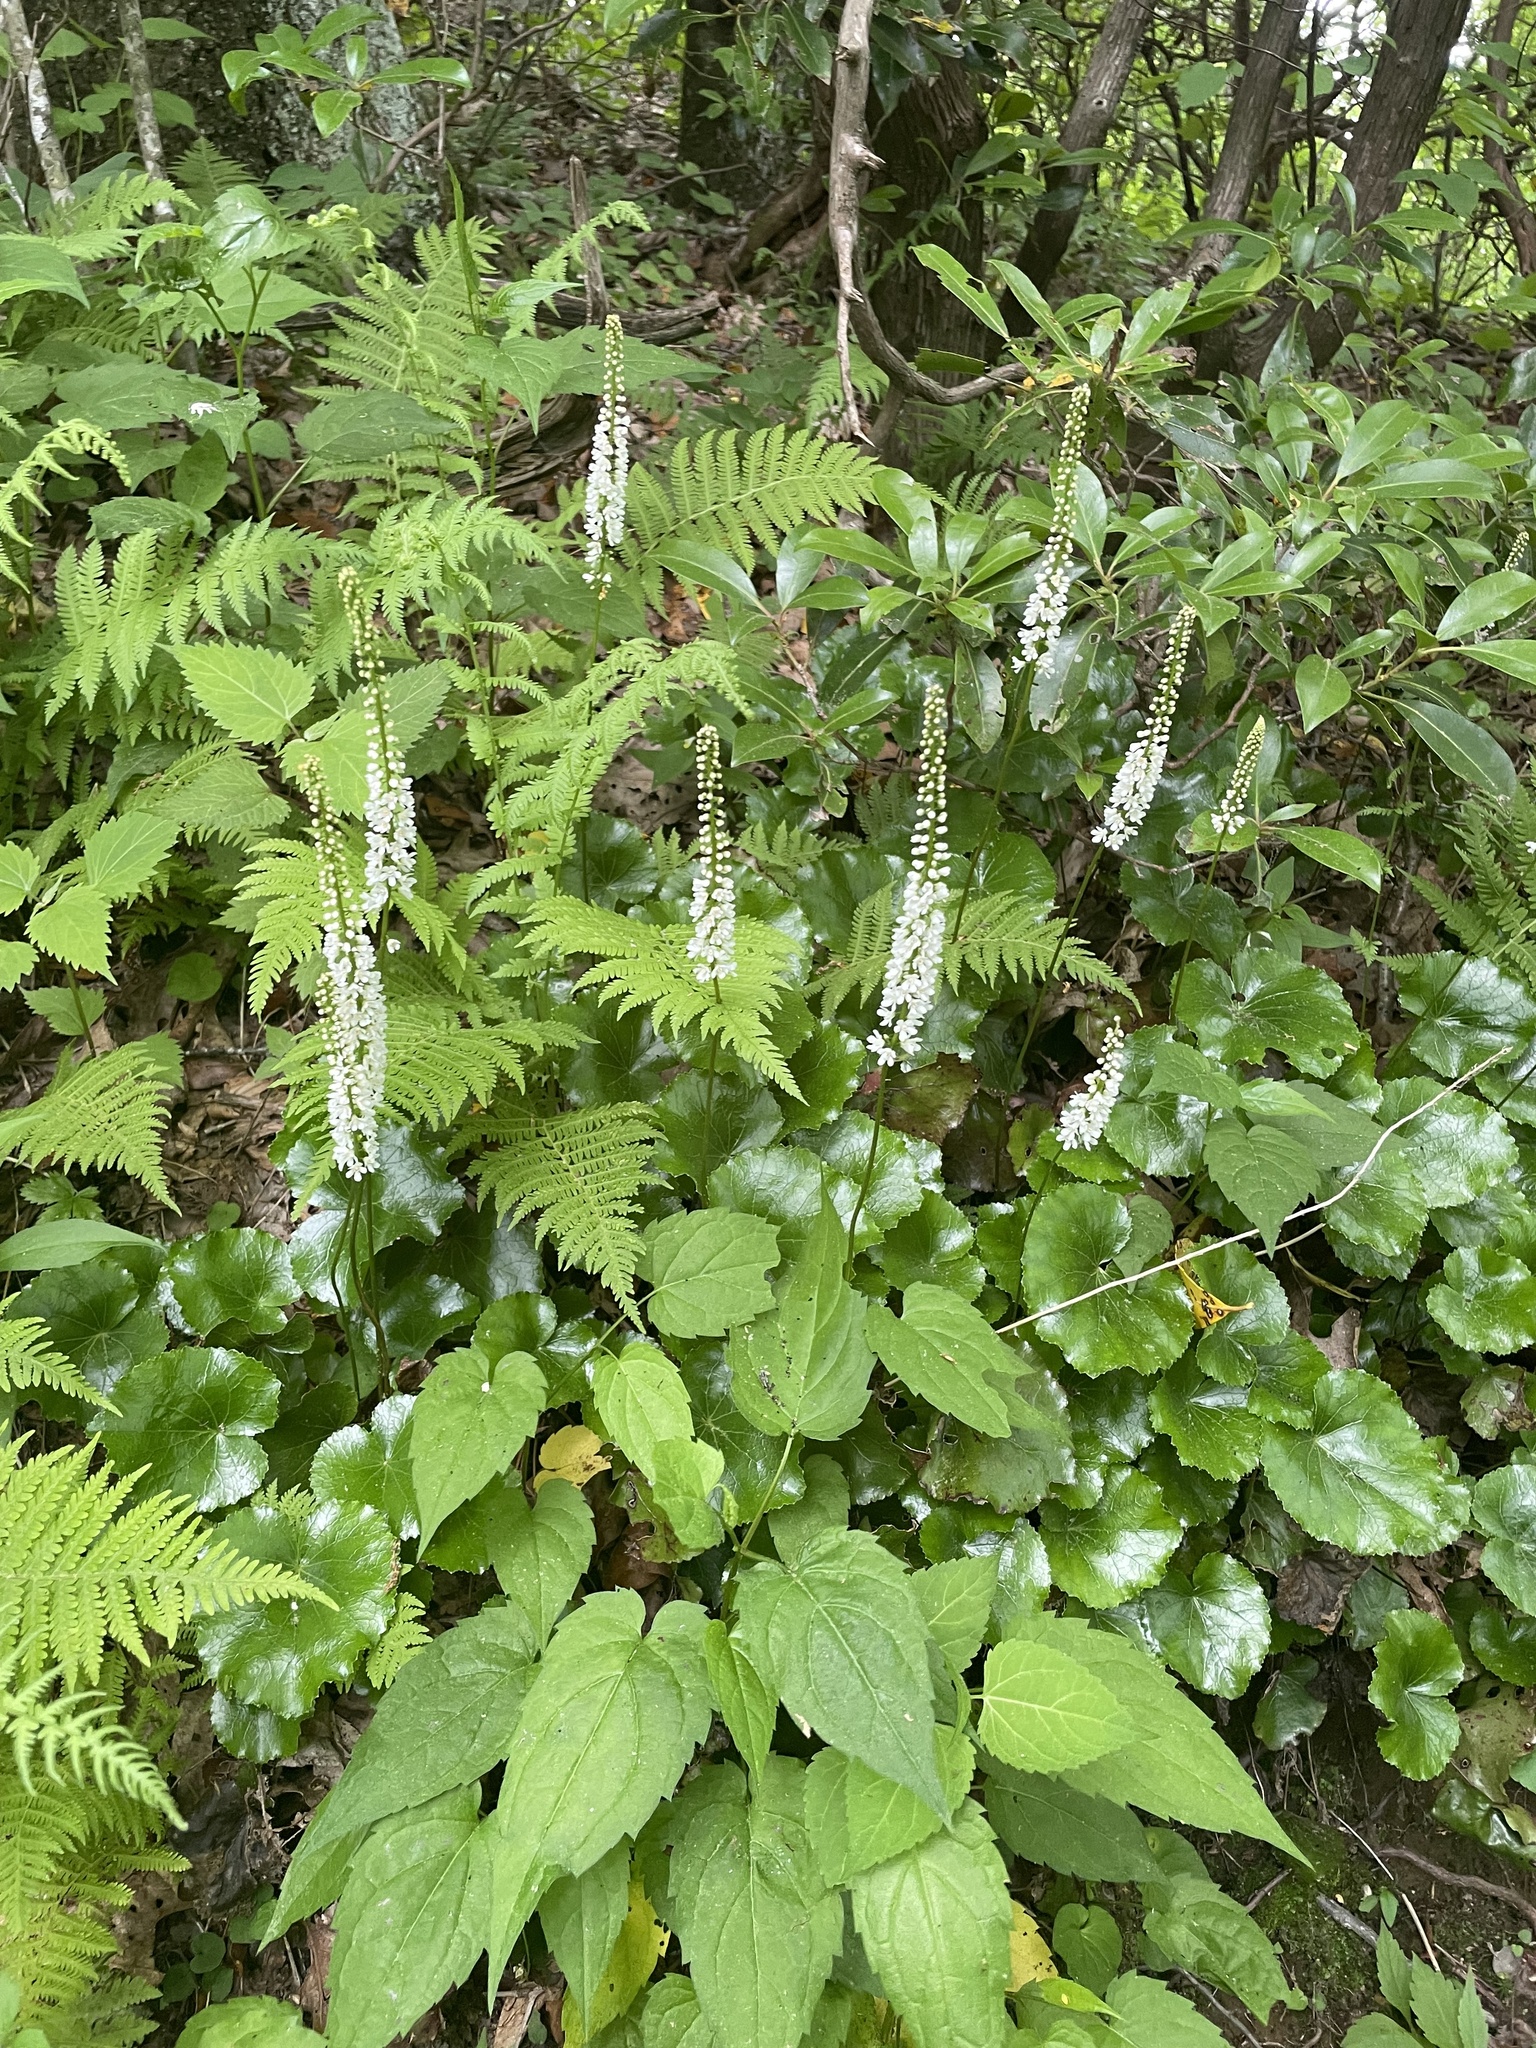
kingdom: Plantae
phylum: Tracheophyta
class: Magnoliopsida
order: Ericales
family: Diapensiaceae
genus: Galax
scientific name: Galax urceolata
